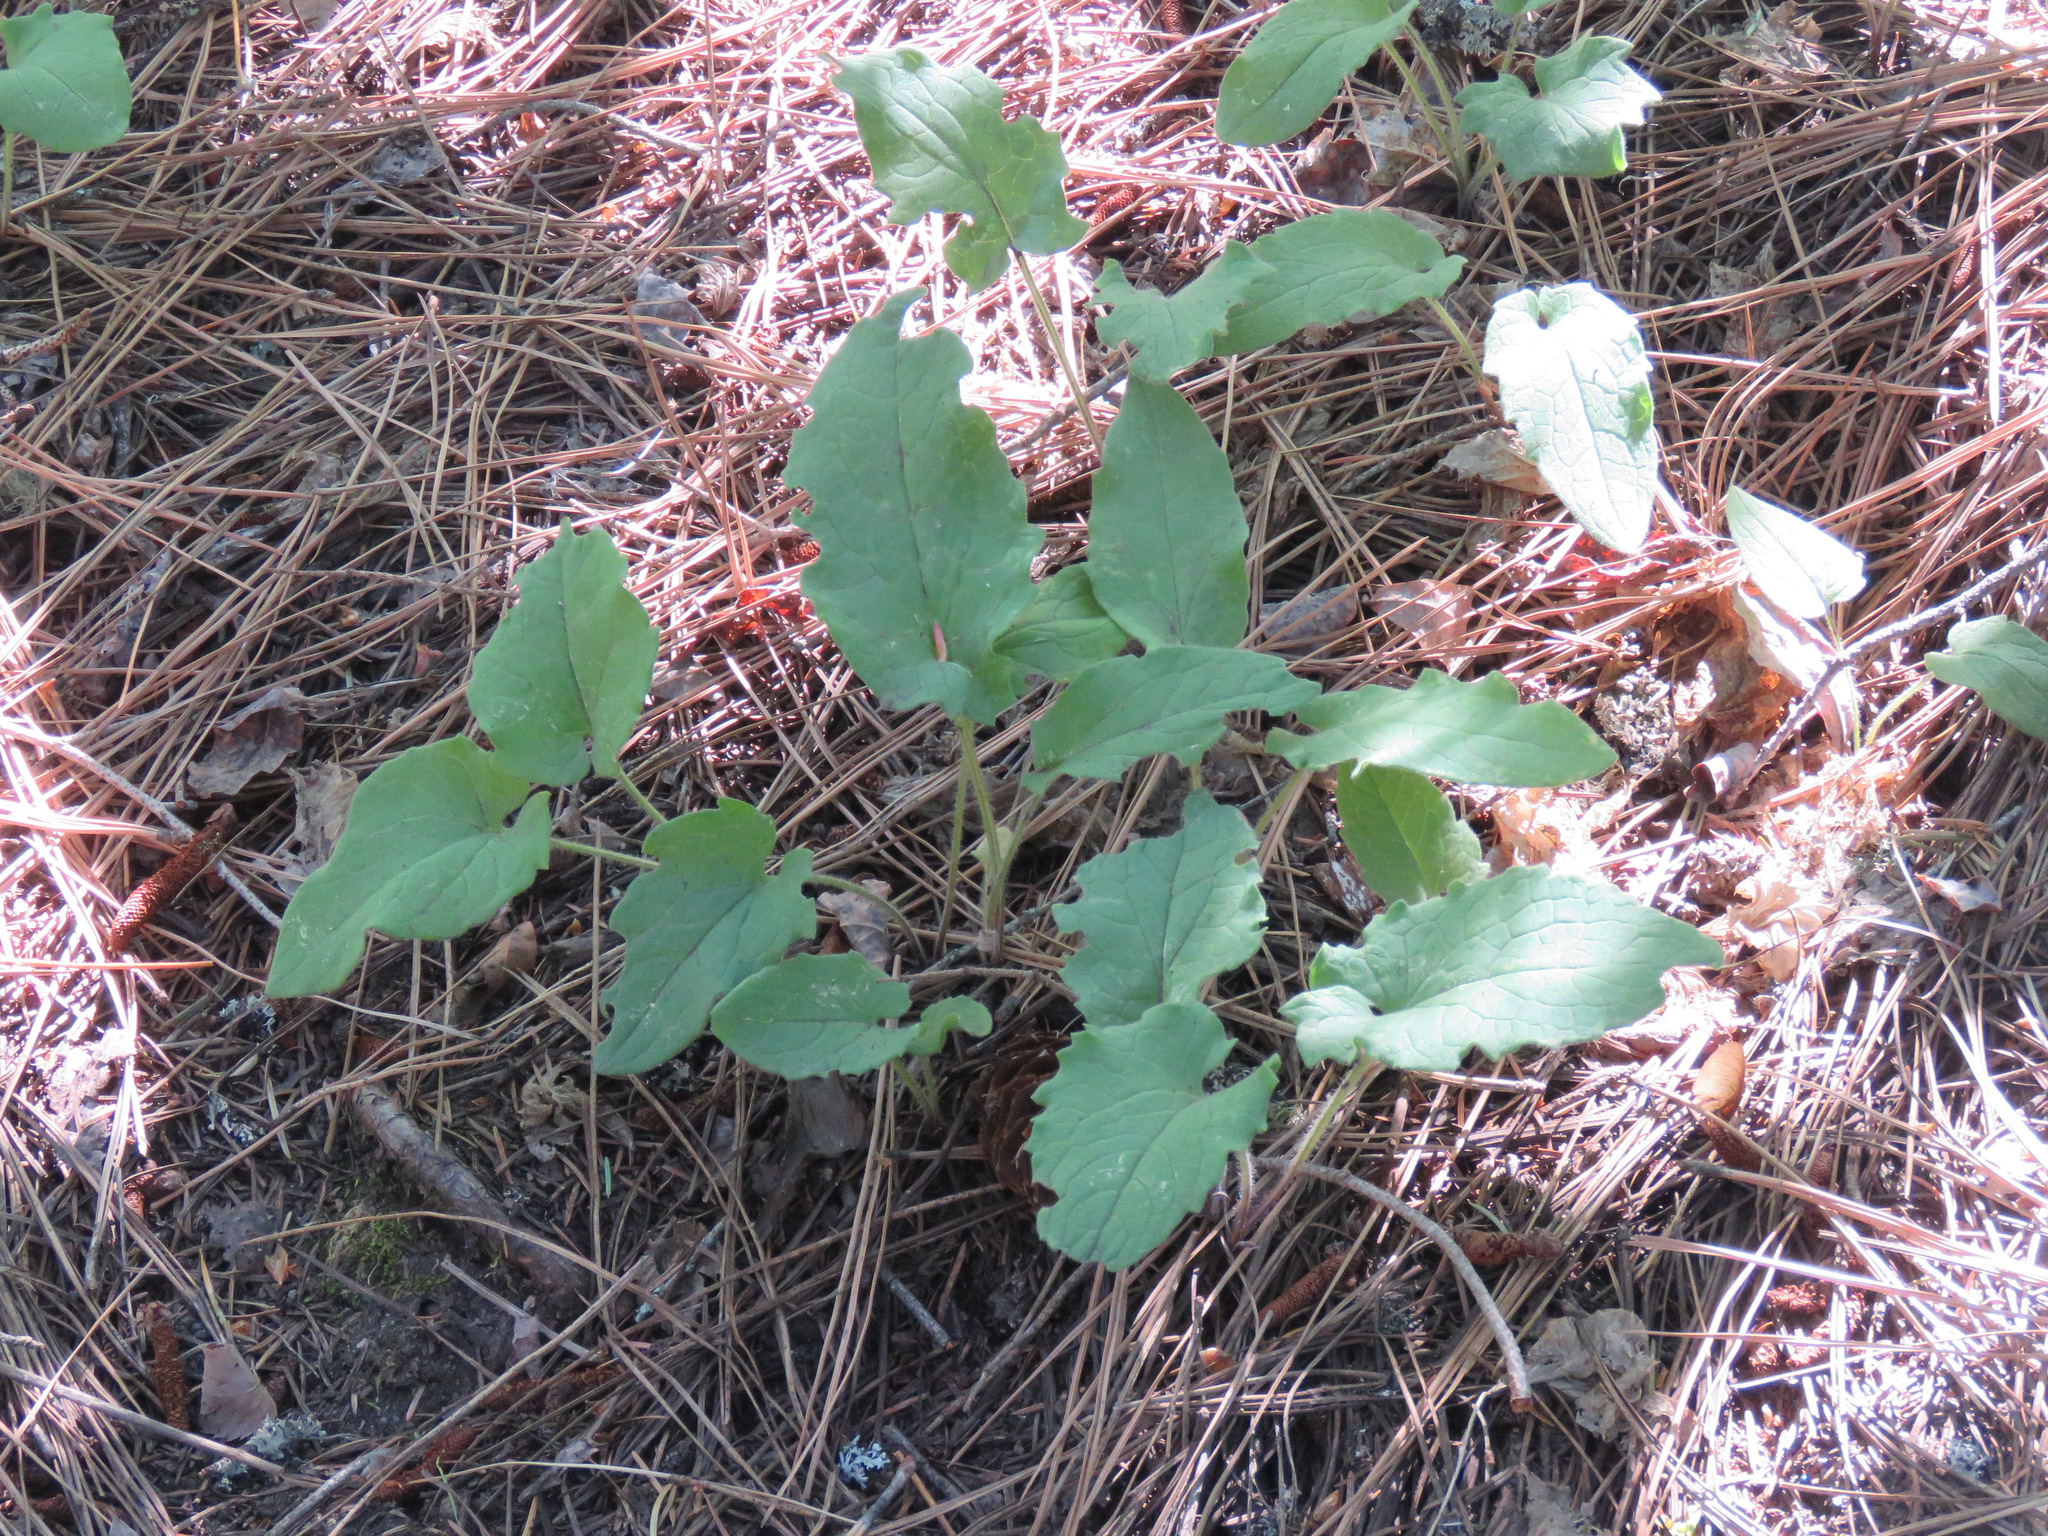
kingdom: Plantae
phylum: Tracheophyta
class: Magnoliopsida
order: Asterales
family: Asteraceae
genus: Arnica
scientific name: Arnica cordifolia
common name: Heart-leaf arnica
